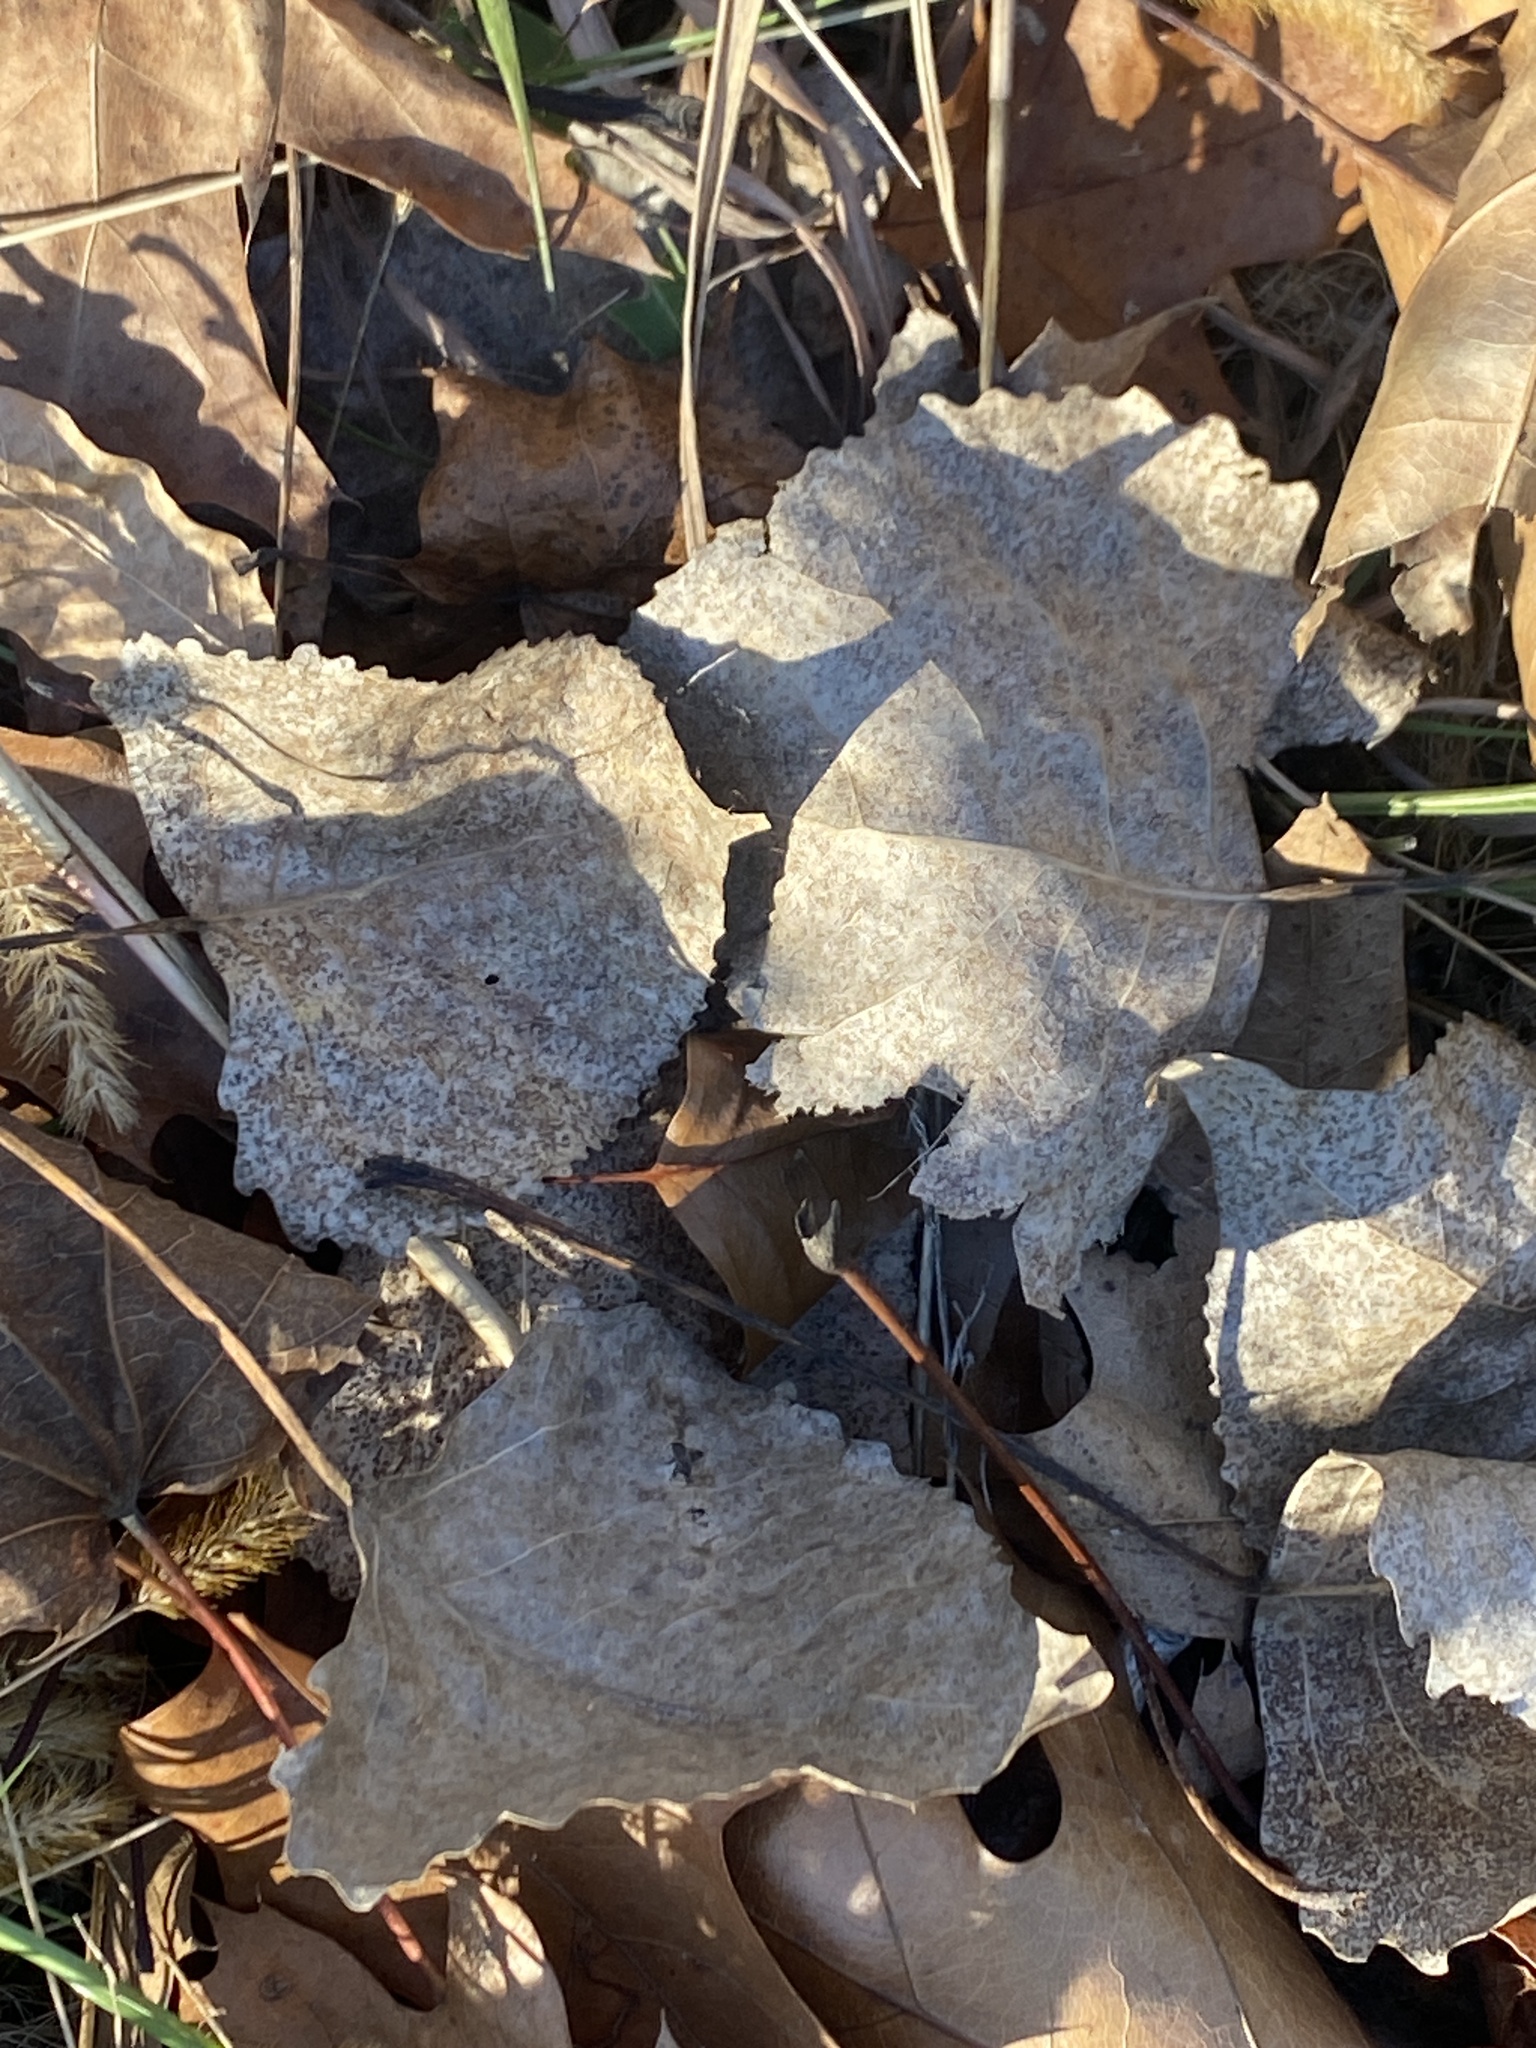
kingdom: Plantae
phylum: Tracheophyta
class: Magnoliopsida
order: Malpighiales
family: Salicaceae
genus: Populus
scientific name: Populus deltoides
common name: Eastern cottonwood
